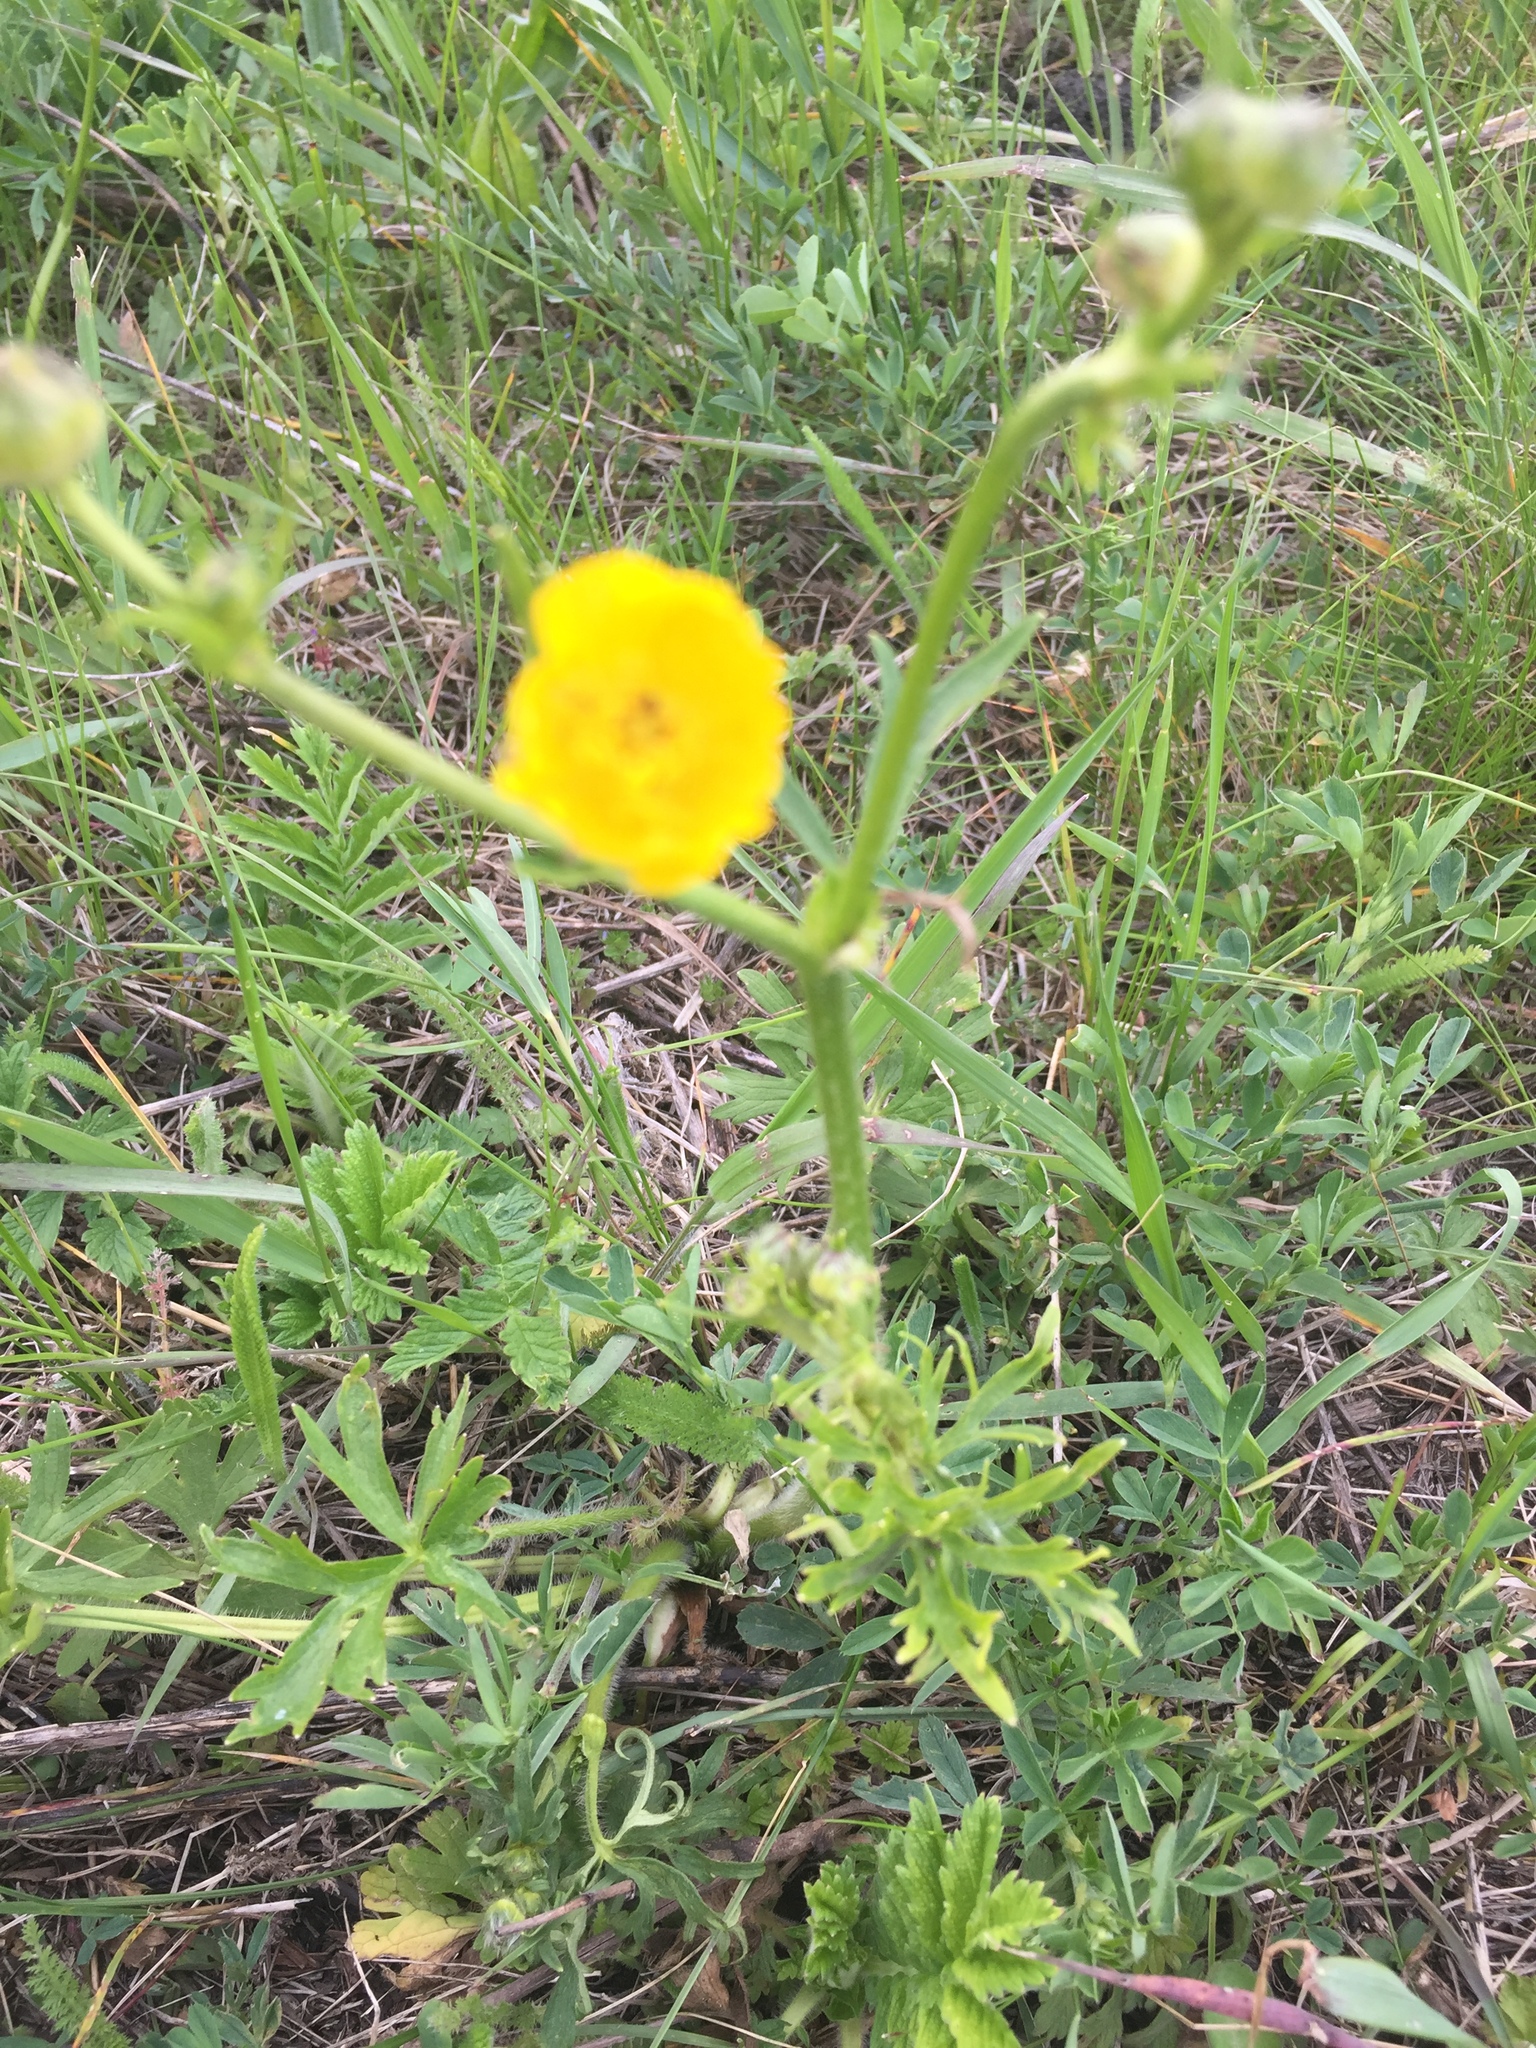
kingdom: Plantae
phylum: Tracheophyta
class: Magnoliopsida
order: Ranunculales
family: Ranunculaceae
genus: Ranunculus
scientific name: Ranunculus polyanthemos
